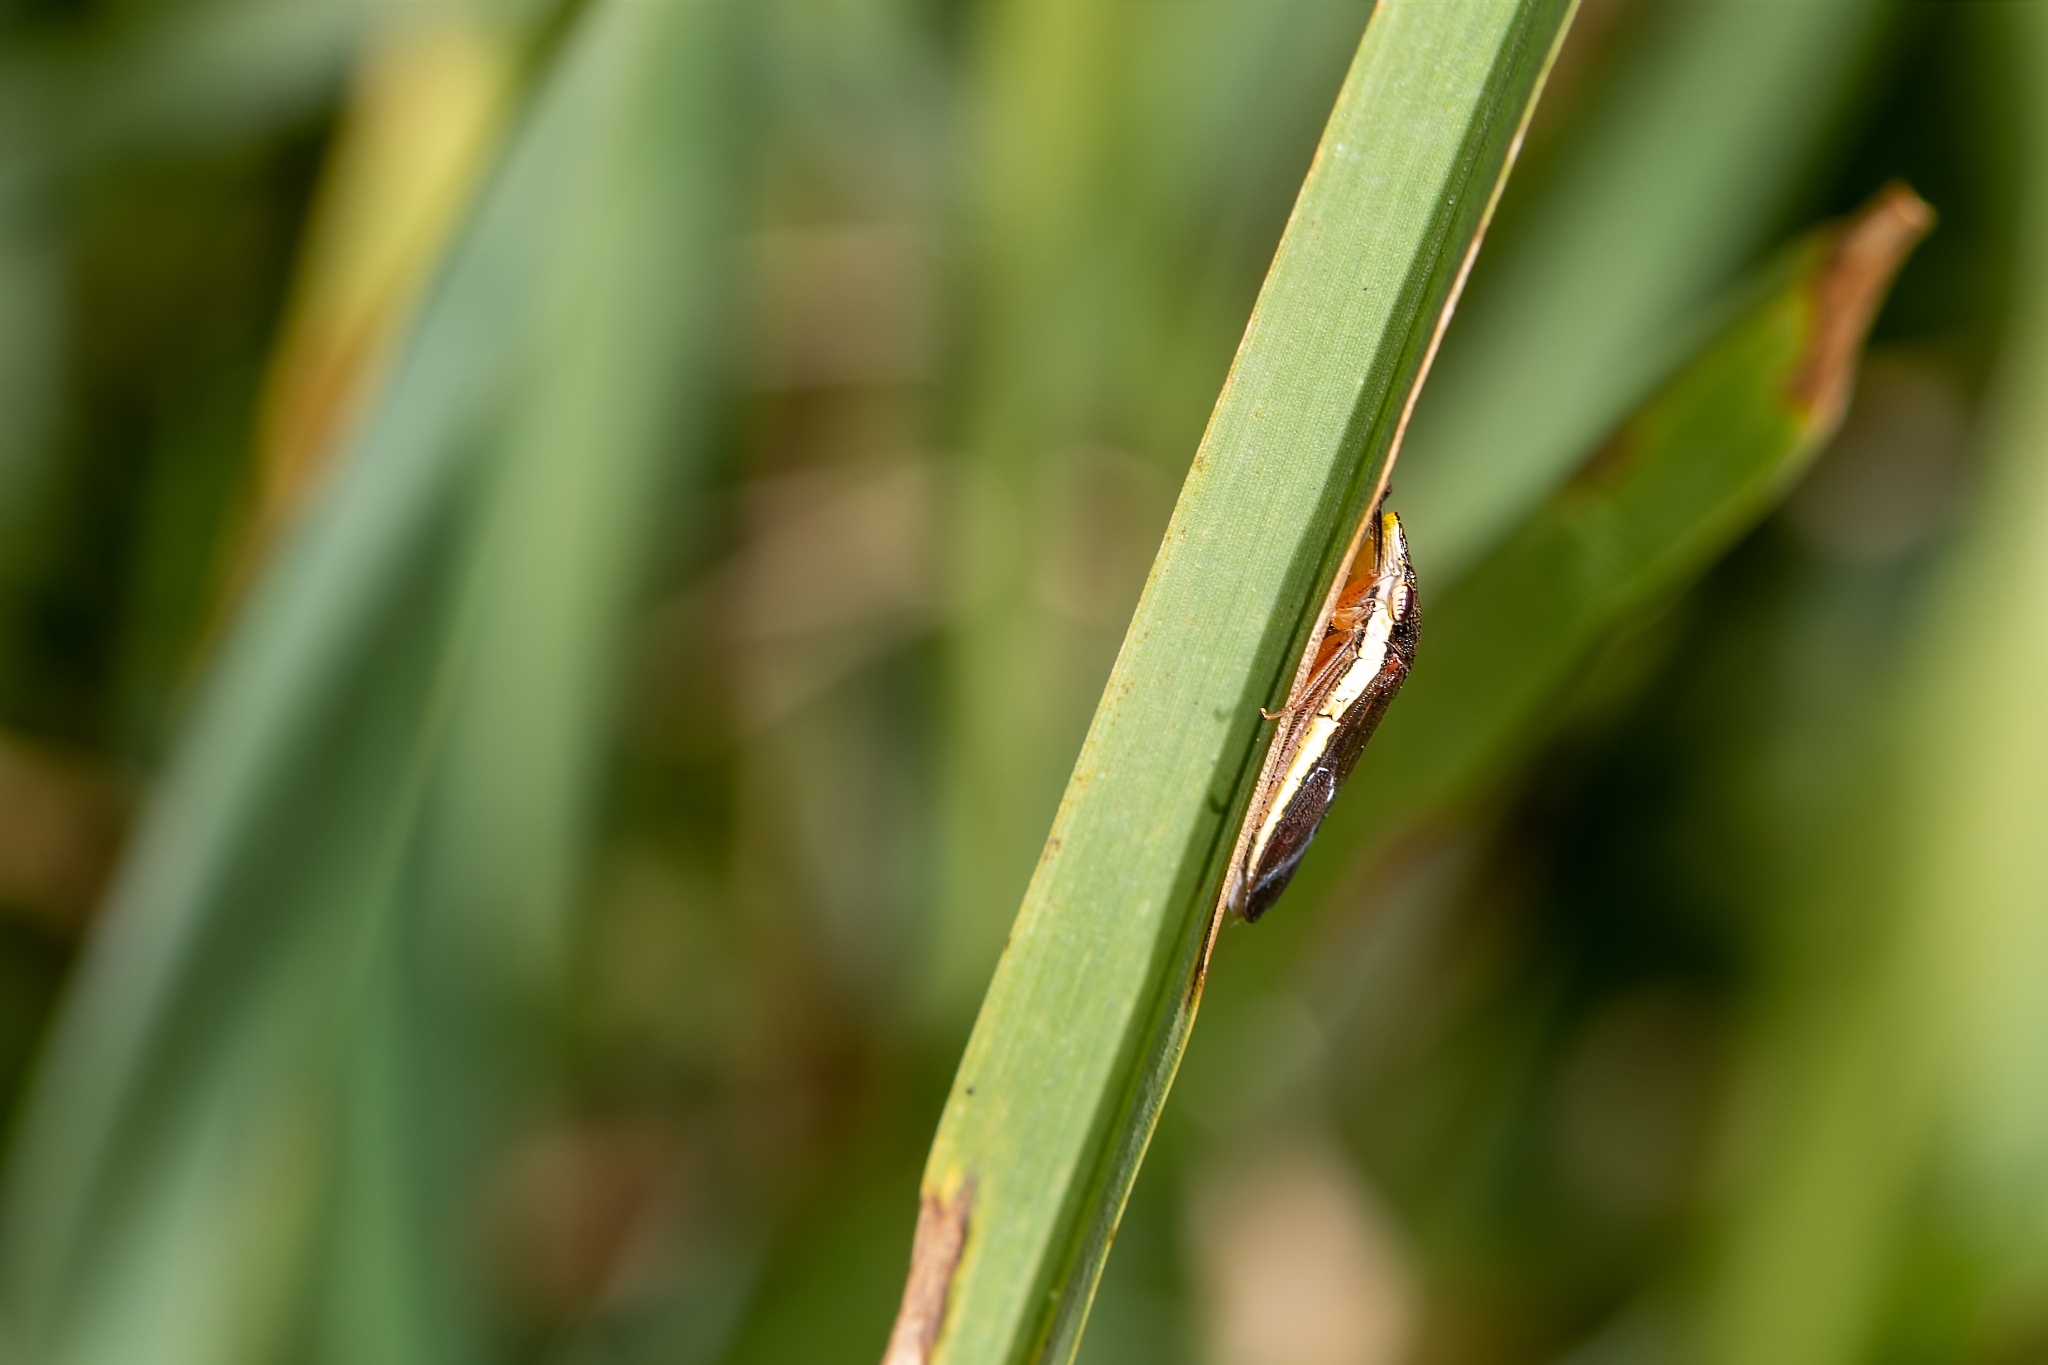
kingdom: Animalia
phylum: Arthropoda
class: Insecta
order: Hemiptera
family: Cicadellidae
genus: Homalodisca
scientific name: Homalodisca insolita
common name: Johnson grass sharpshooter
